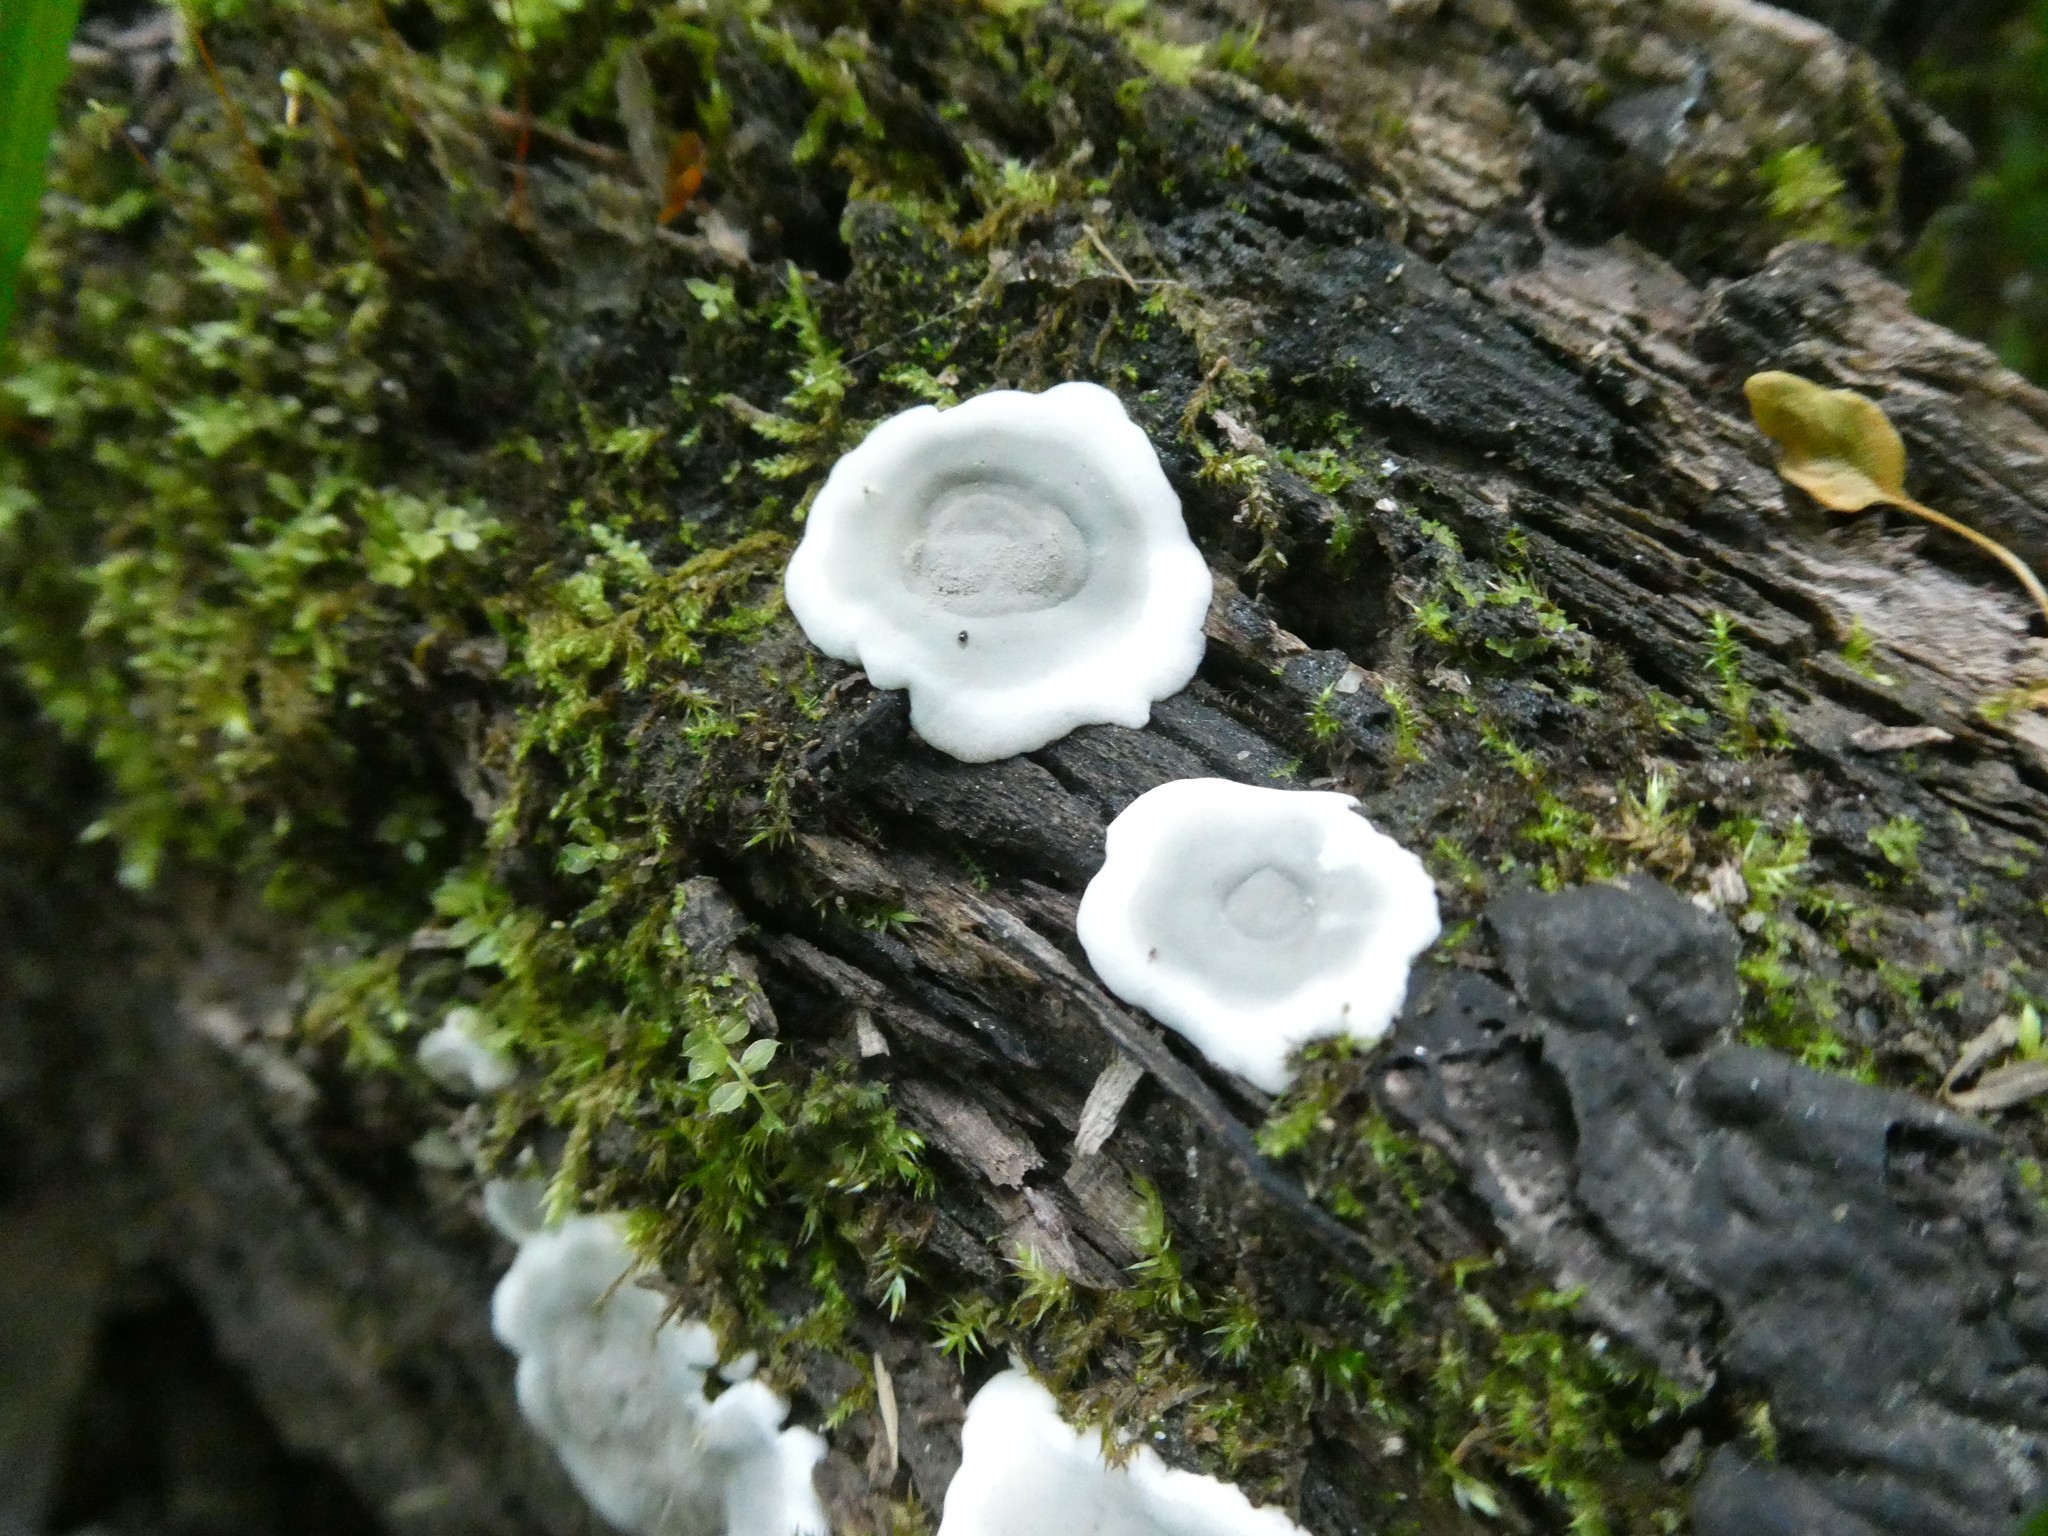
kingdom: Fungi
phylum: Ascomycota
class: Sordariomycetes
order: Xylariales
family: Xylariaceae
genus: Kretzschmaria
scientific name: Kretzschmaria deusta
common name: Brittle cinder
